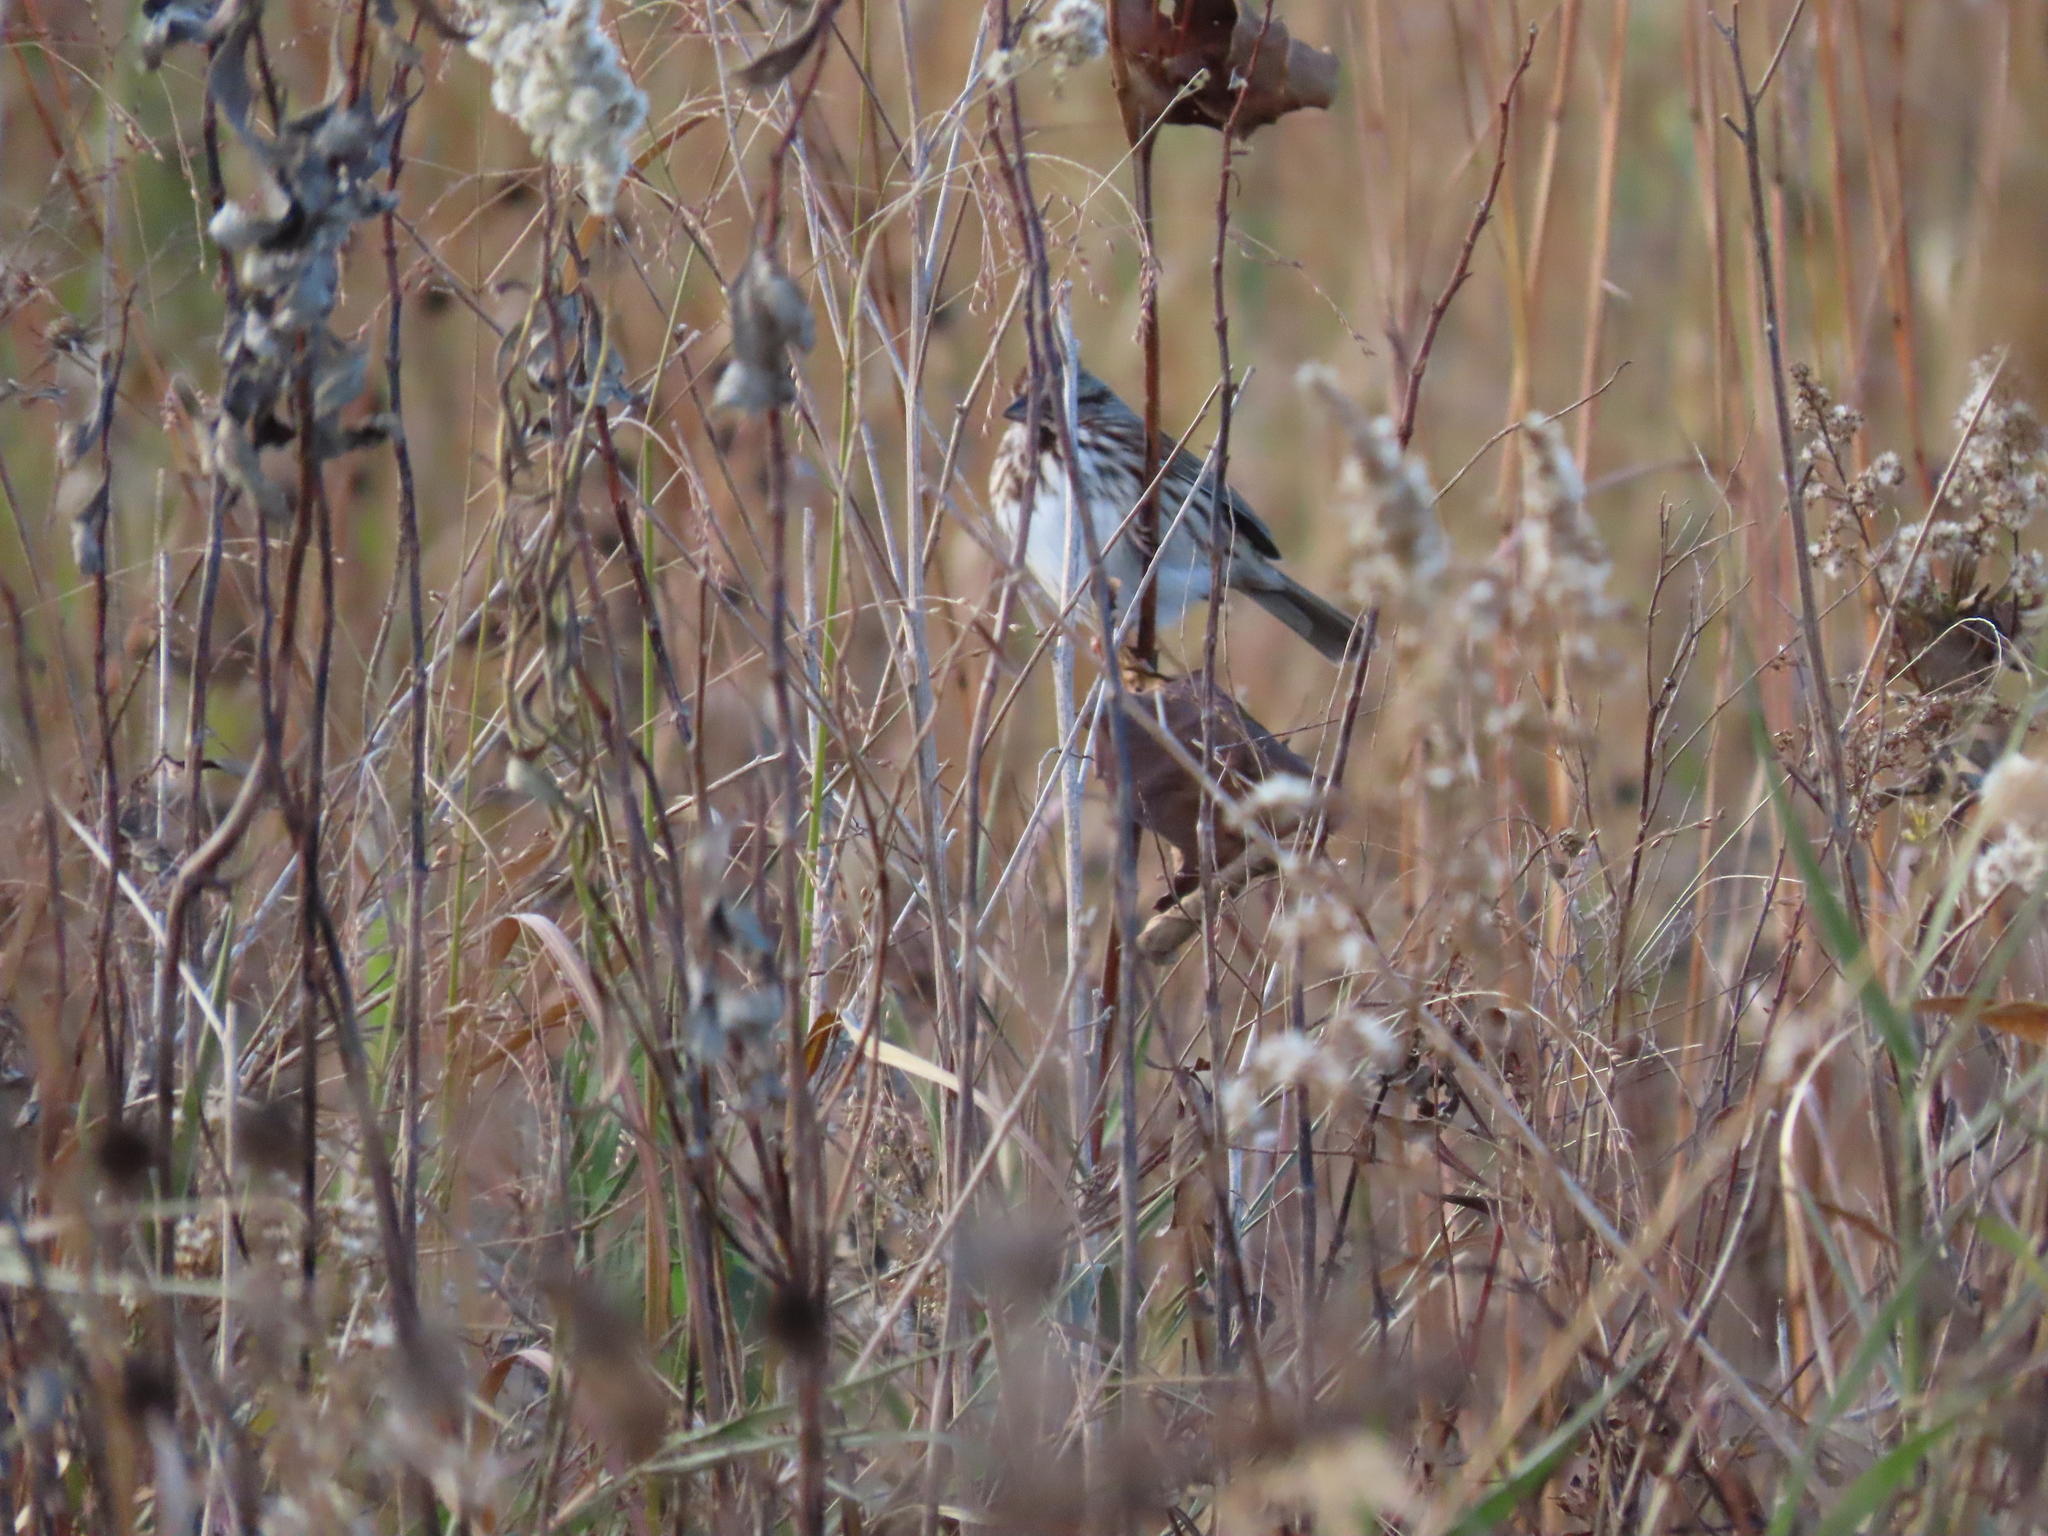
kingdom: Animalia
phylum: Chordata
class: Aves
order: Passeriformes
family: Passerellidae
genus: Melospiza
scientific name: Melospiza melodia
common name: Song sparrow
